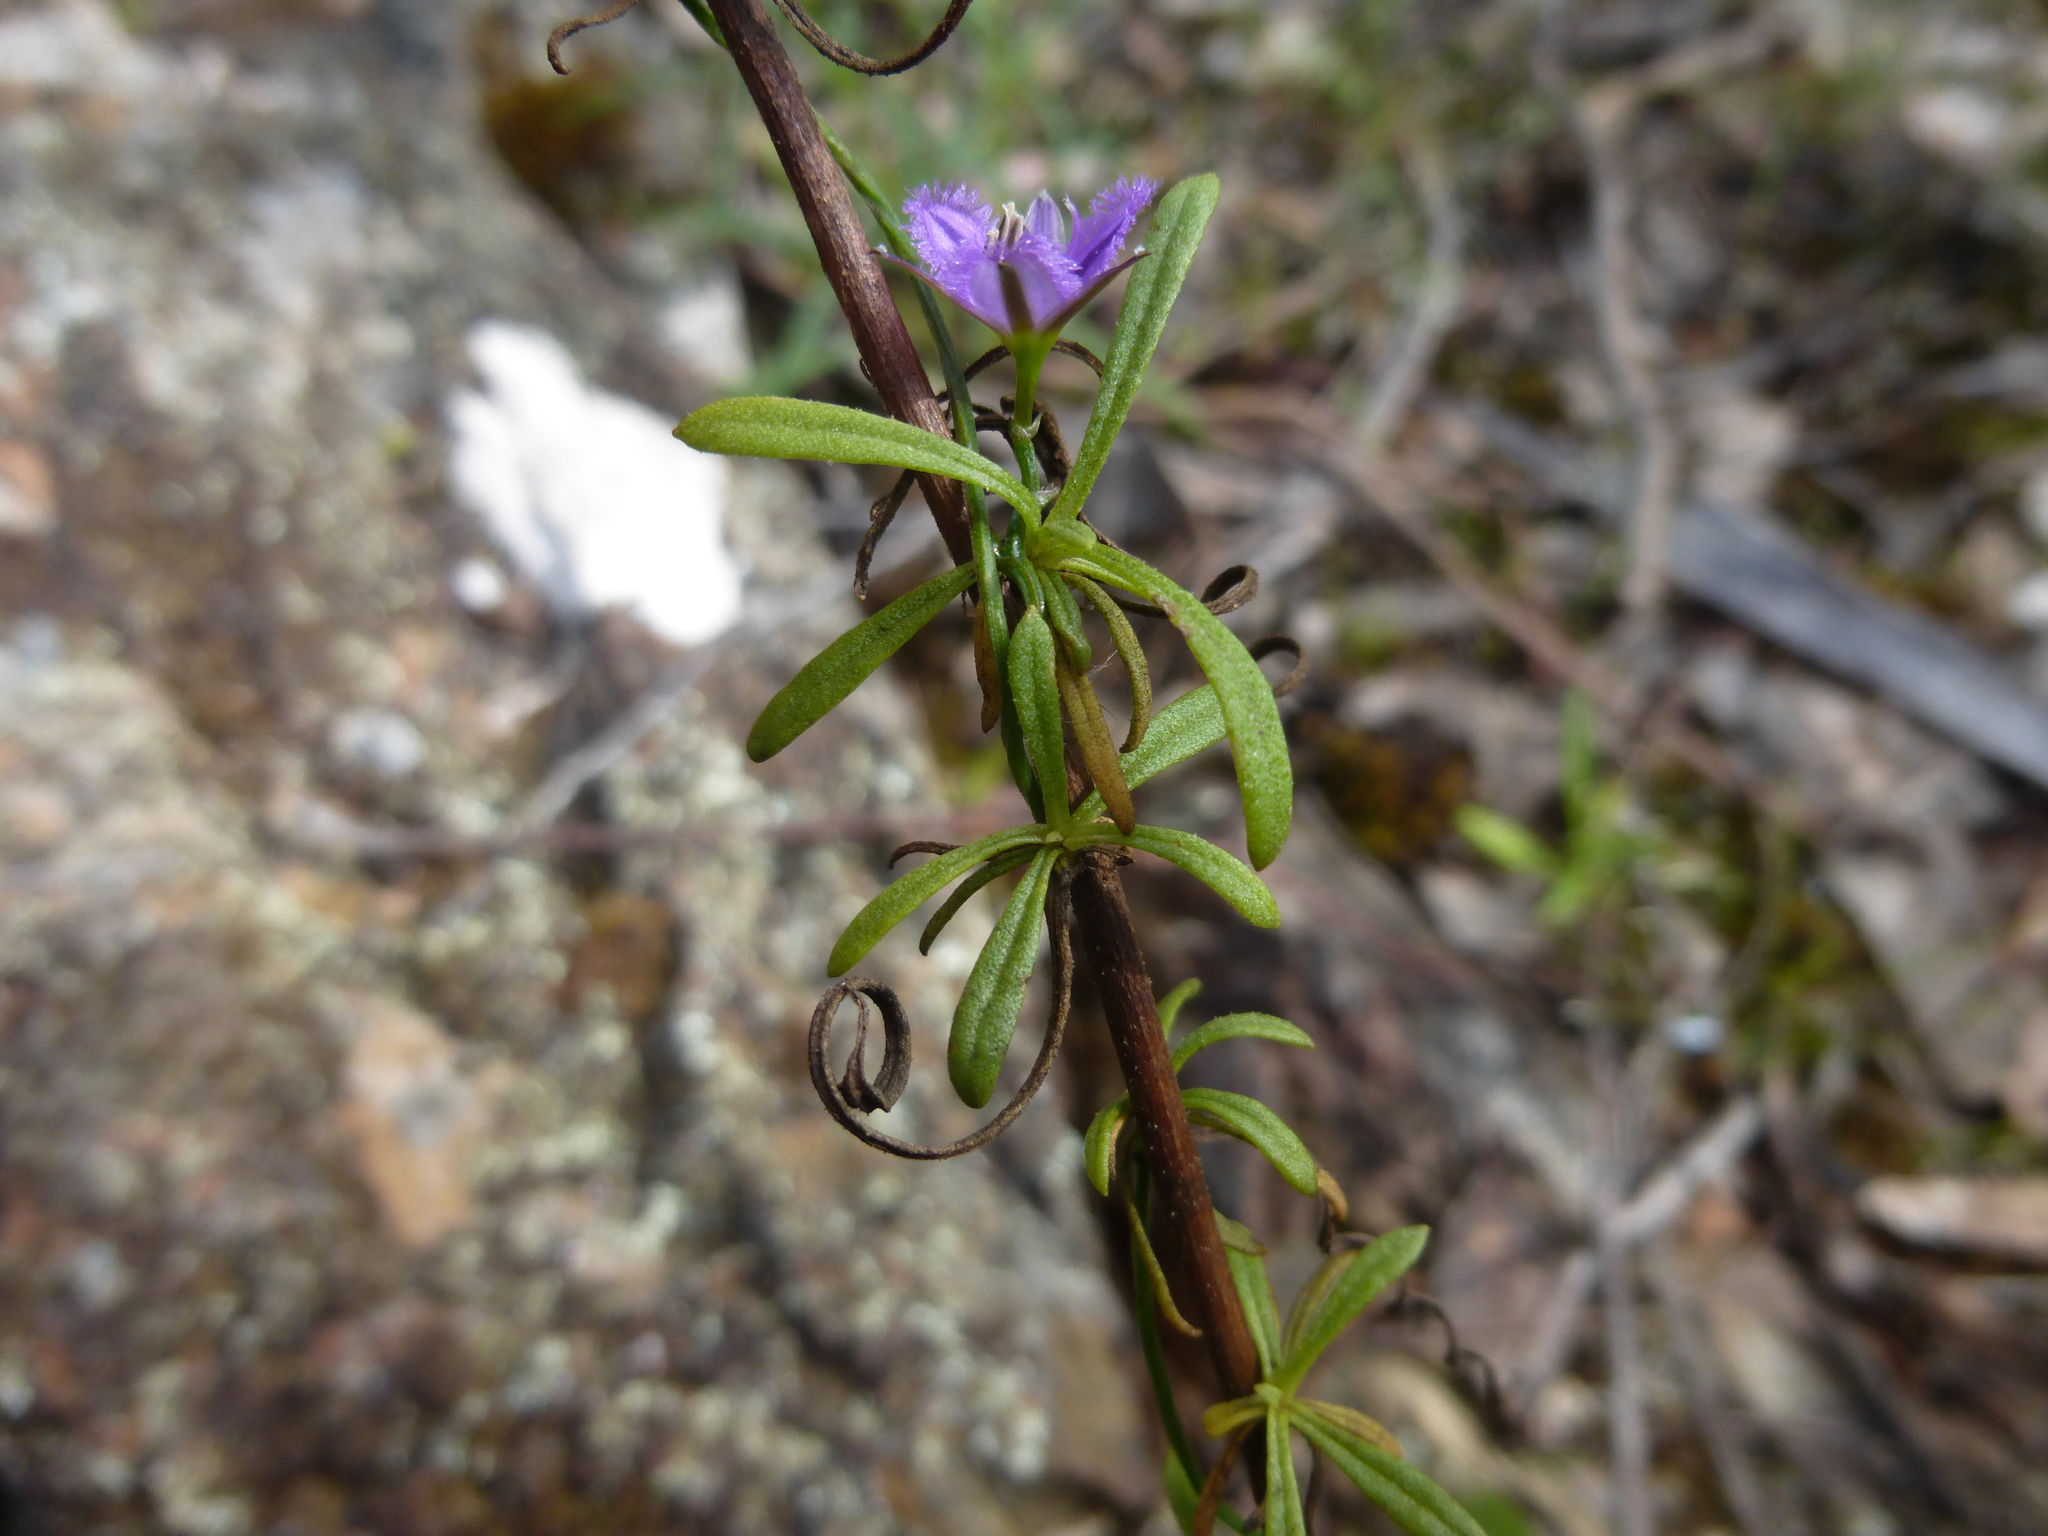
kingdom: Plantae
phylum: Tracheophyta
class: Liliopsida
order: Asparagales
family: Asparagaceae
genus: Thysanotus
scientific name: Thysanotus patersonii
